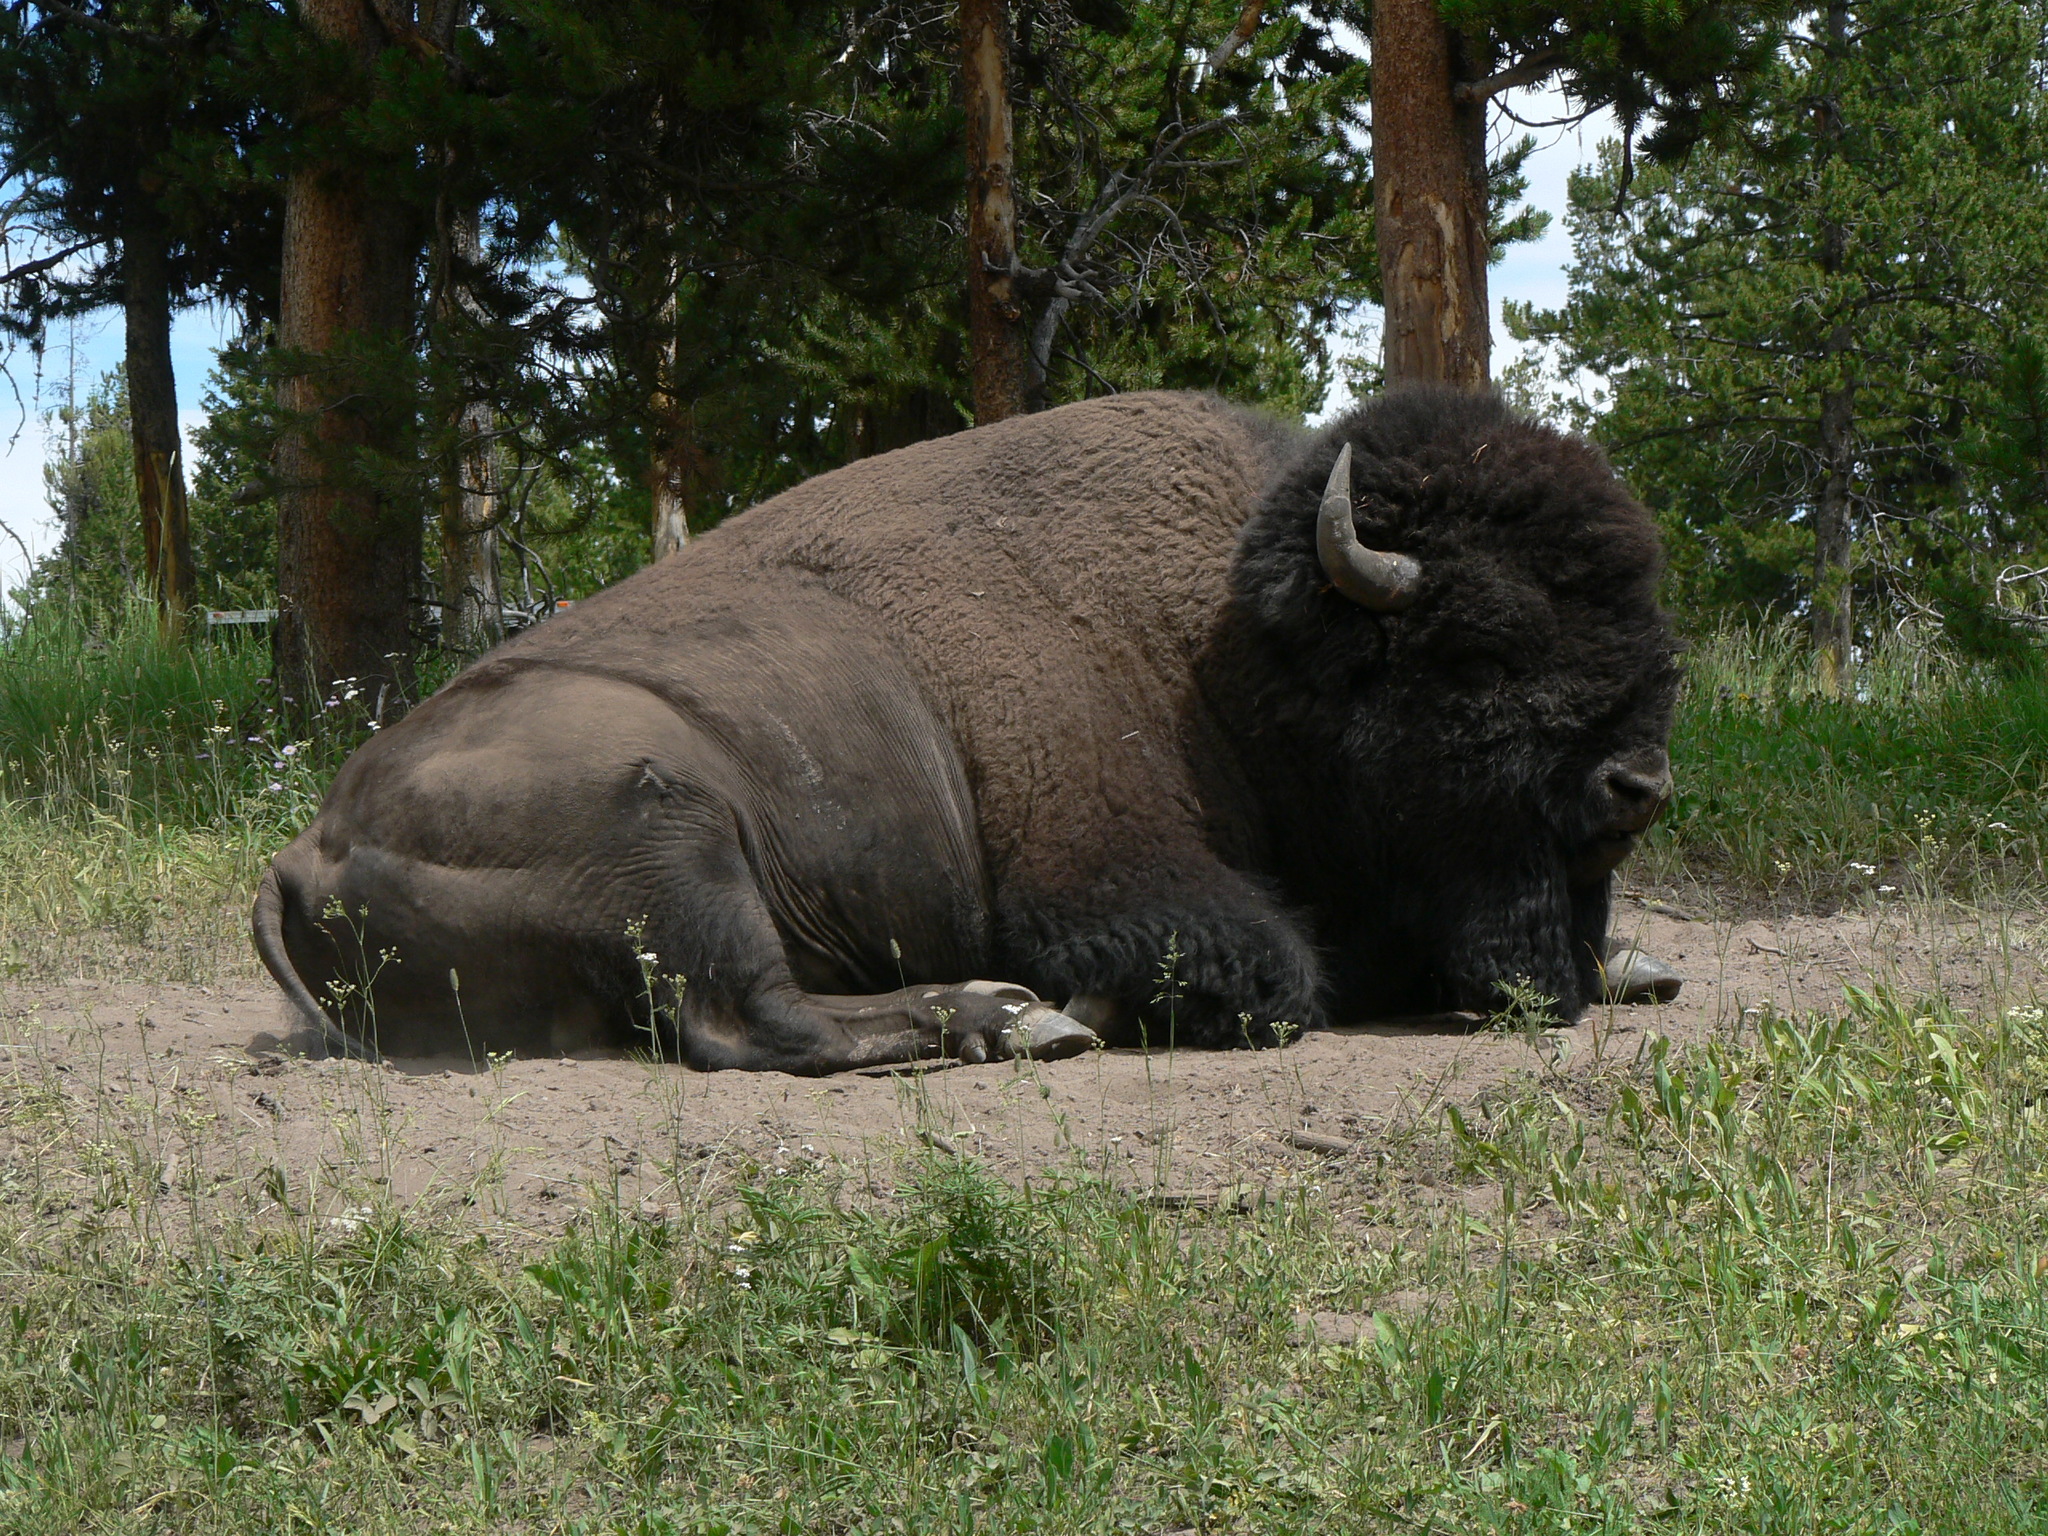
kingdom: Animalia
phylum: Chordata
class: Mammalia
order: Artiodactyla
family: Bovidae
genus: Bison
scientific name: Bison bison
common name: American bison
